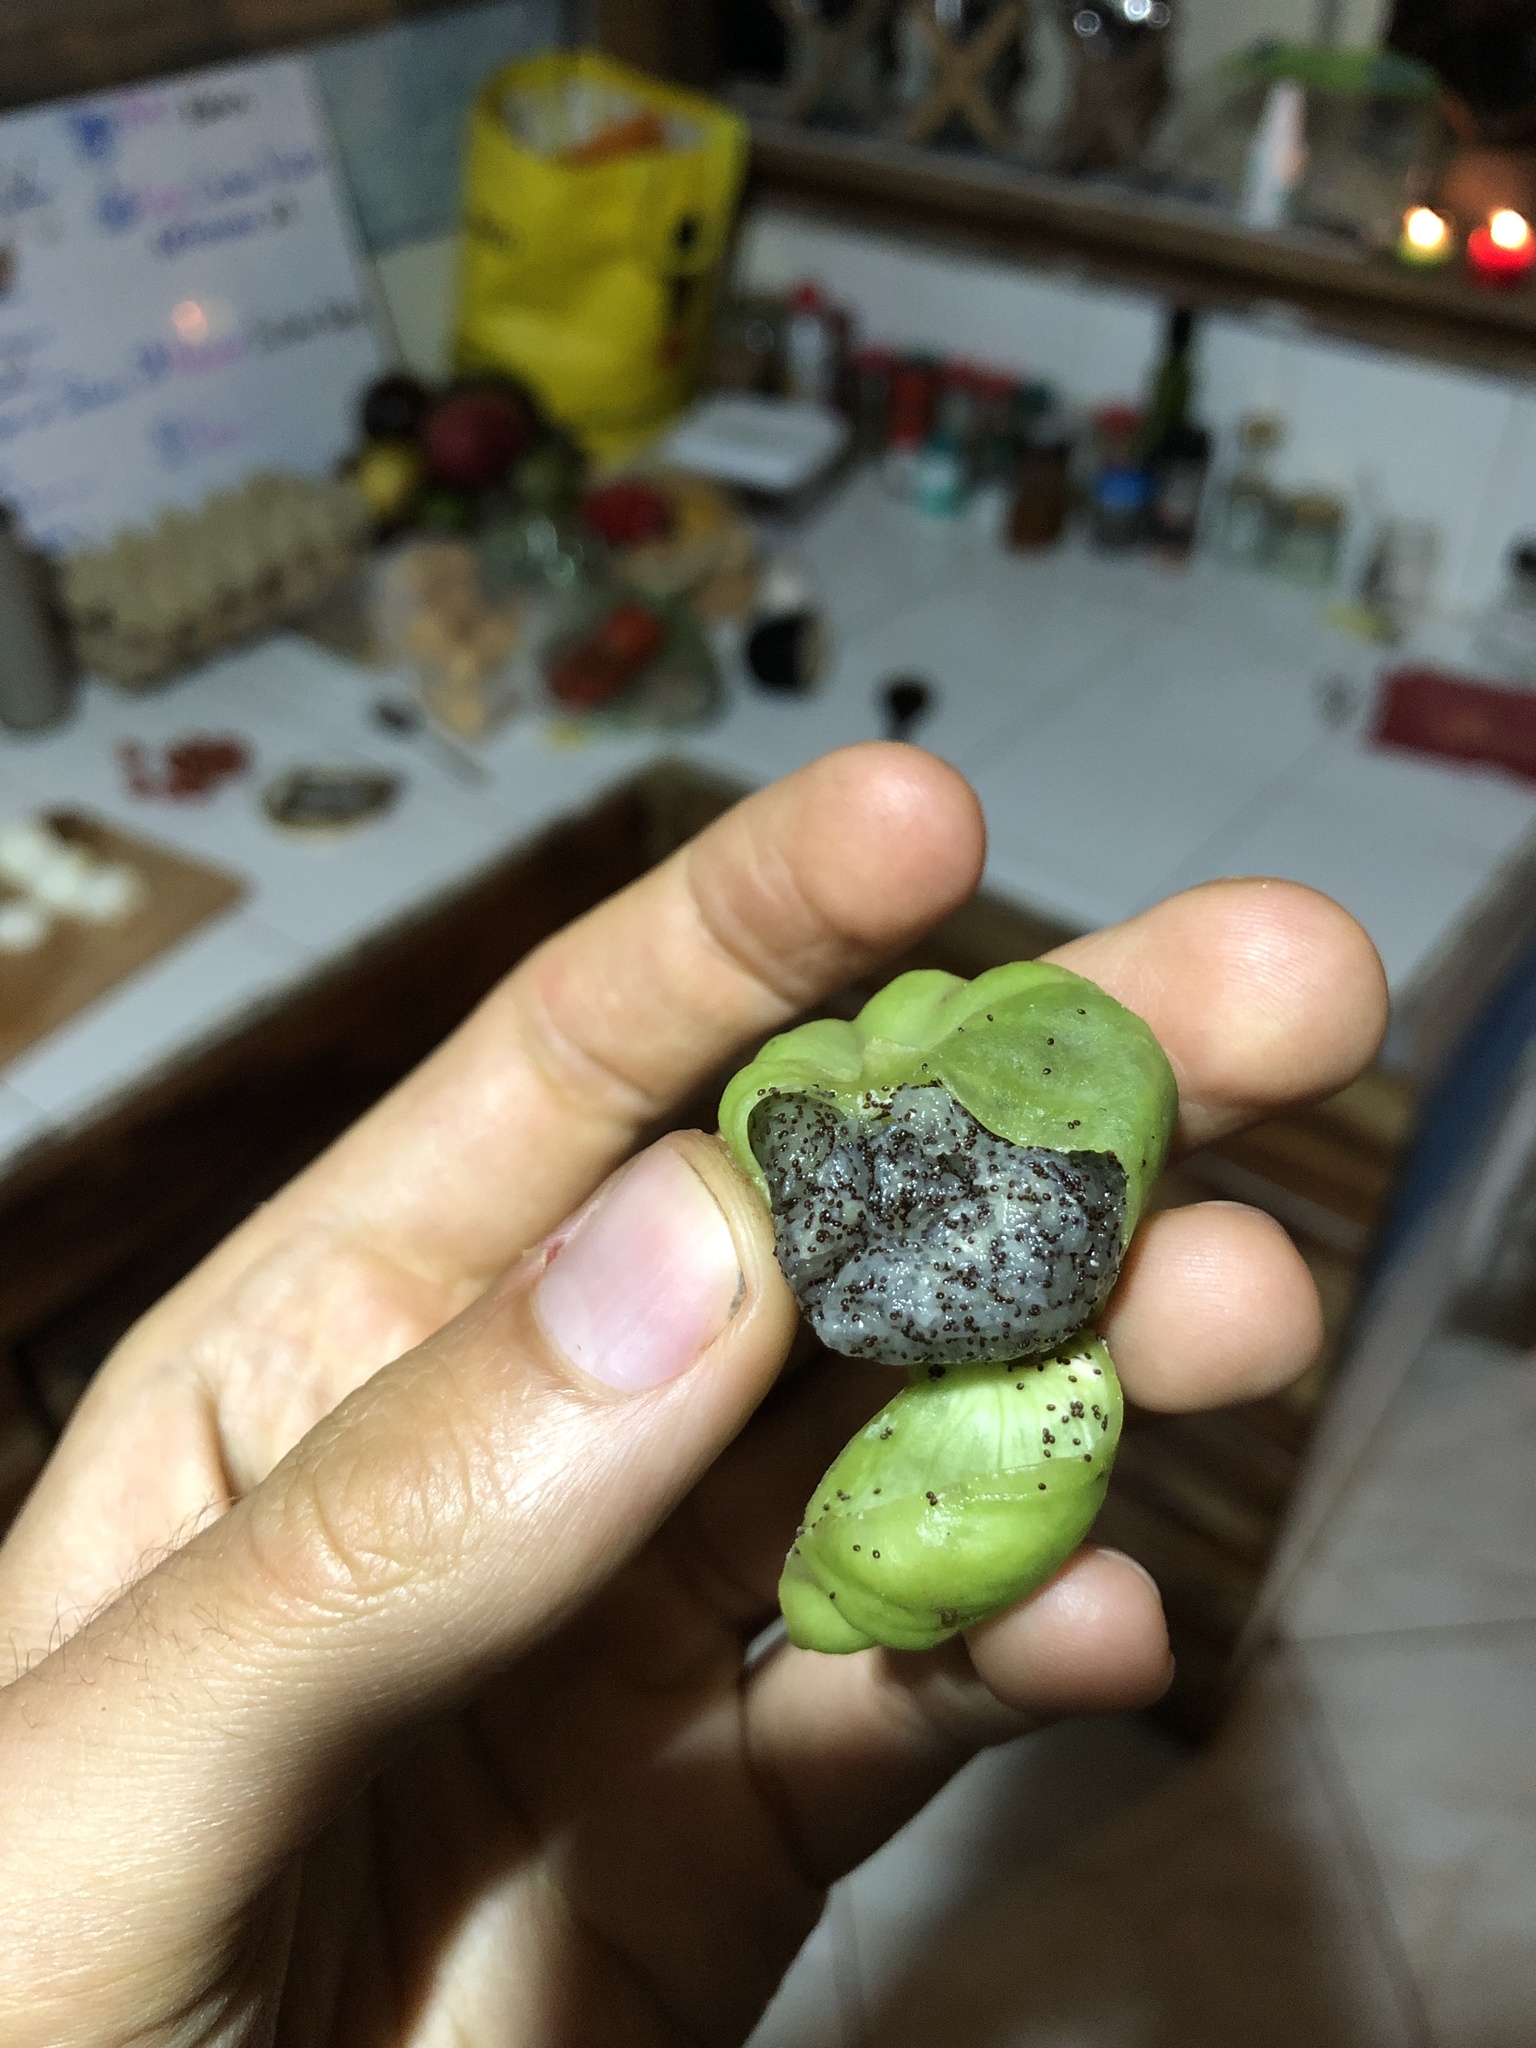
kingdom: Plantae
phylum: Tracheophyta
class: Magnoliopsida
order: Asterales
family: Campanulaceae
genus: Centropogon
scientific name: Centropogon foetidus
